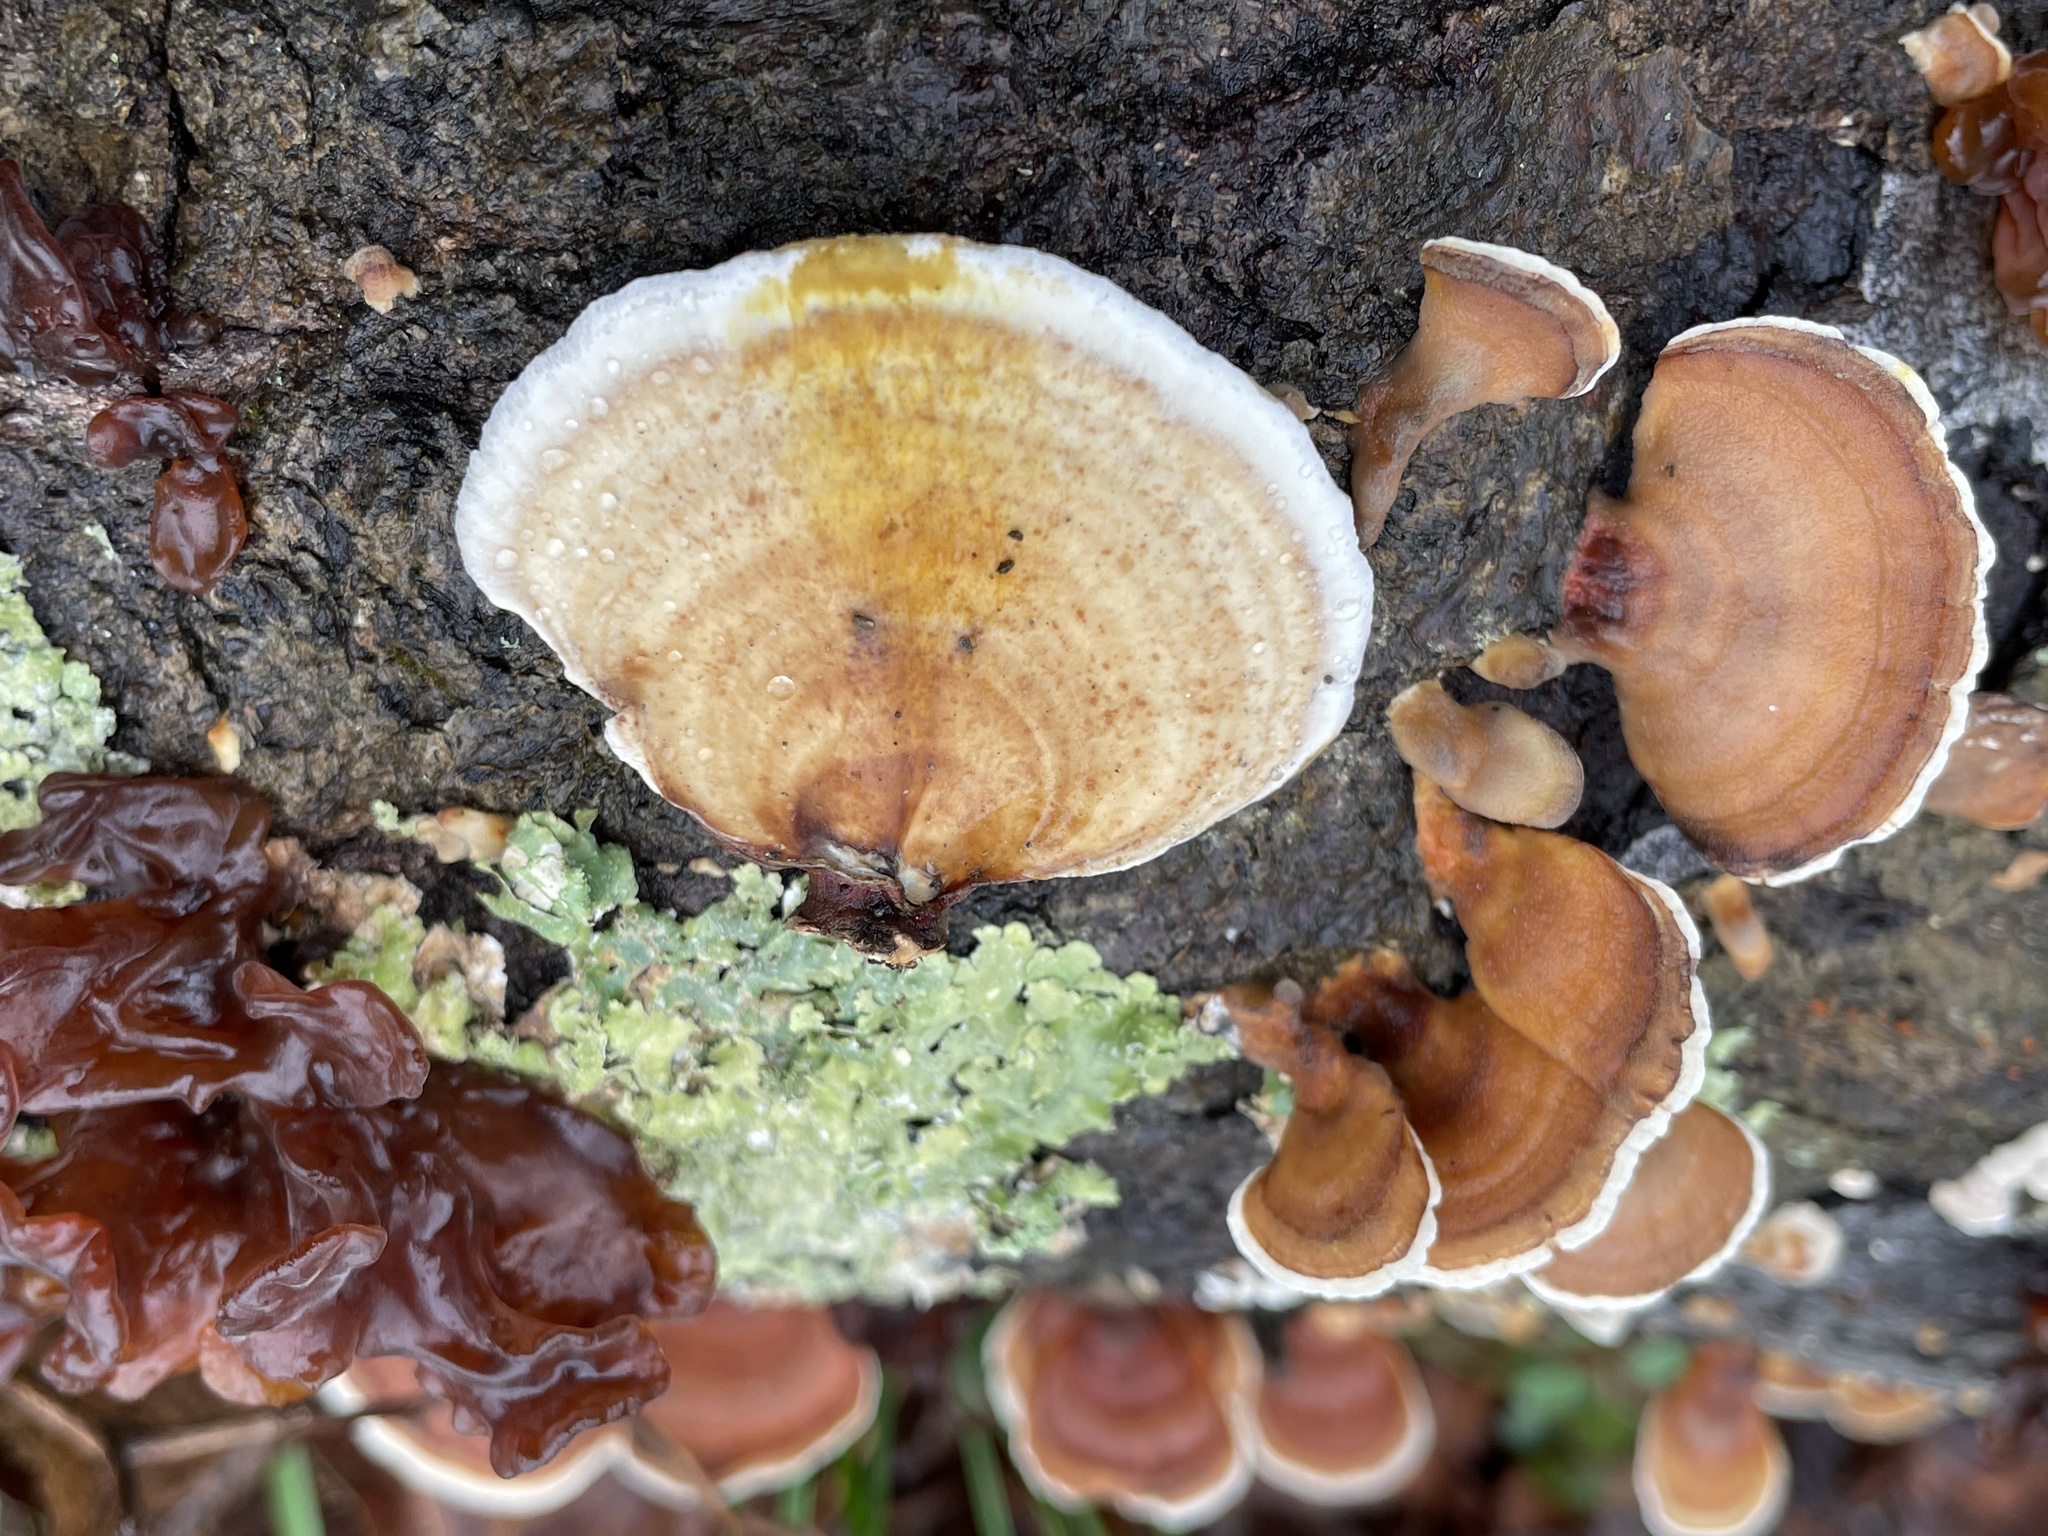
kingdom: Fungi
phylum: Basidiomycota
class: Agaricomycetes
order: Russulales
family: Stereaceae
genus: Stereum
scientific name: Stereum subtomentosum
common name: Yellowing curtain crust
